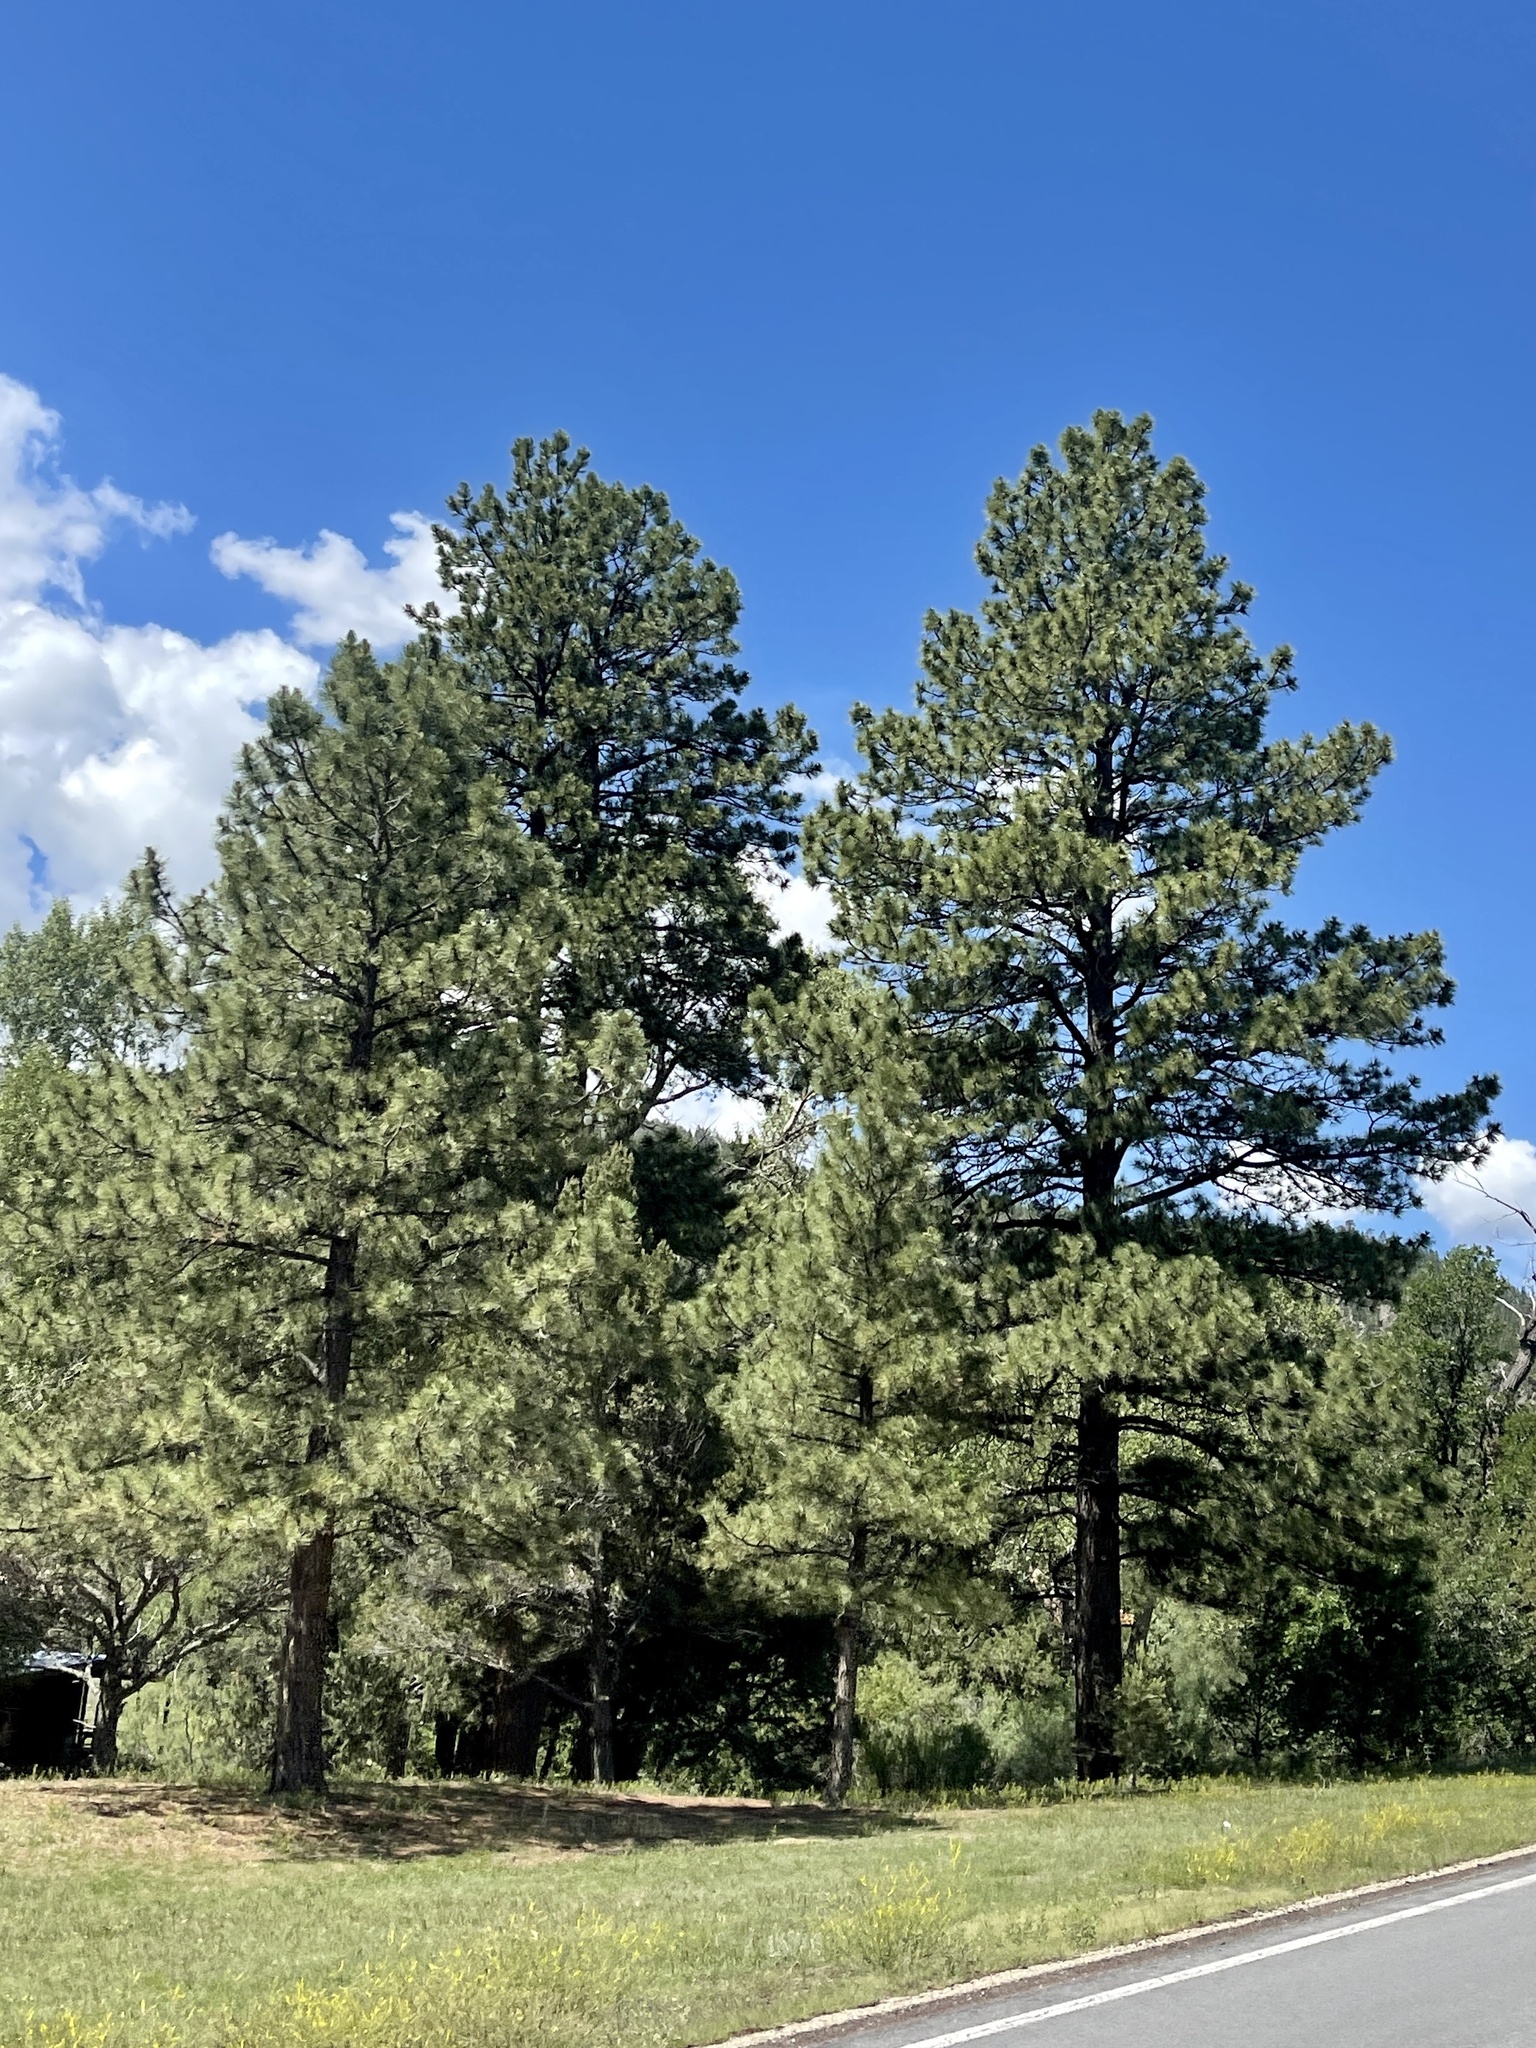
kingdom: Plantae
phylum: Tracheophyta
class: Pinopsida
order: Pinales
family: Pinaceae
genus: Pinus
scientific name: Pinus ponderosa
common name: Western yellow-pine
